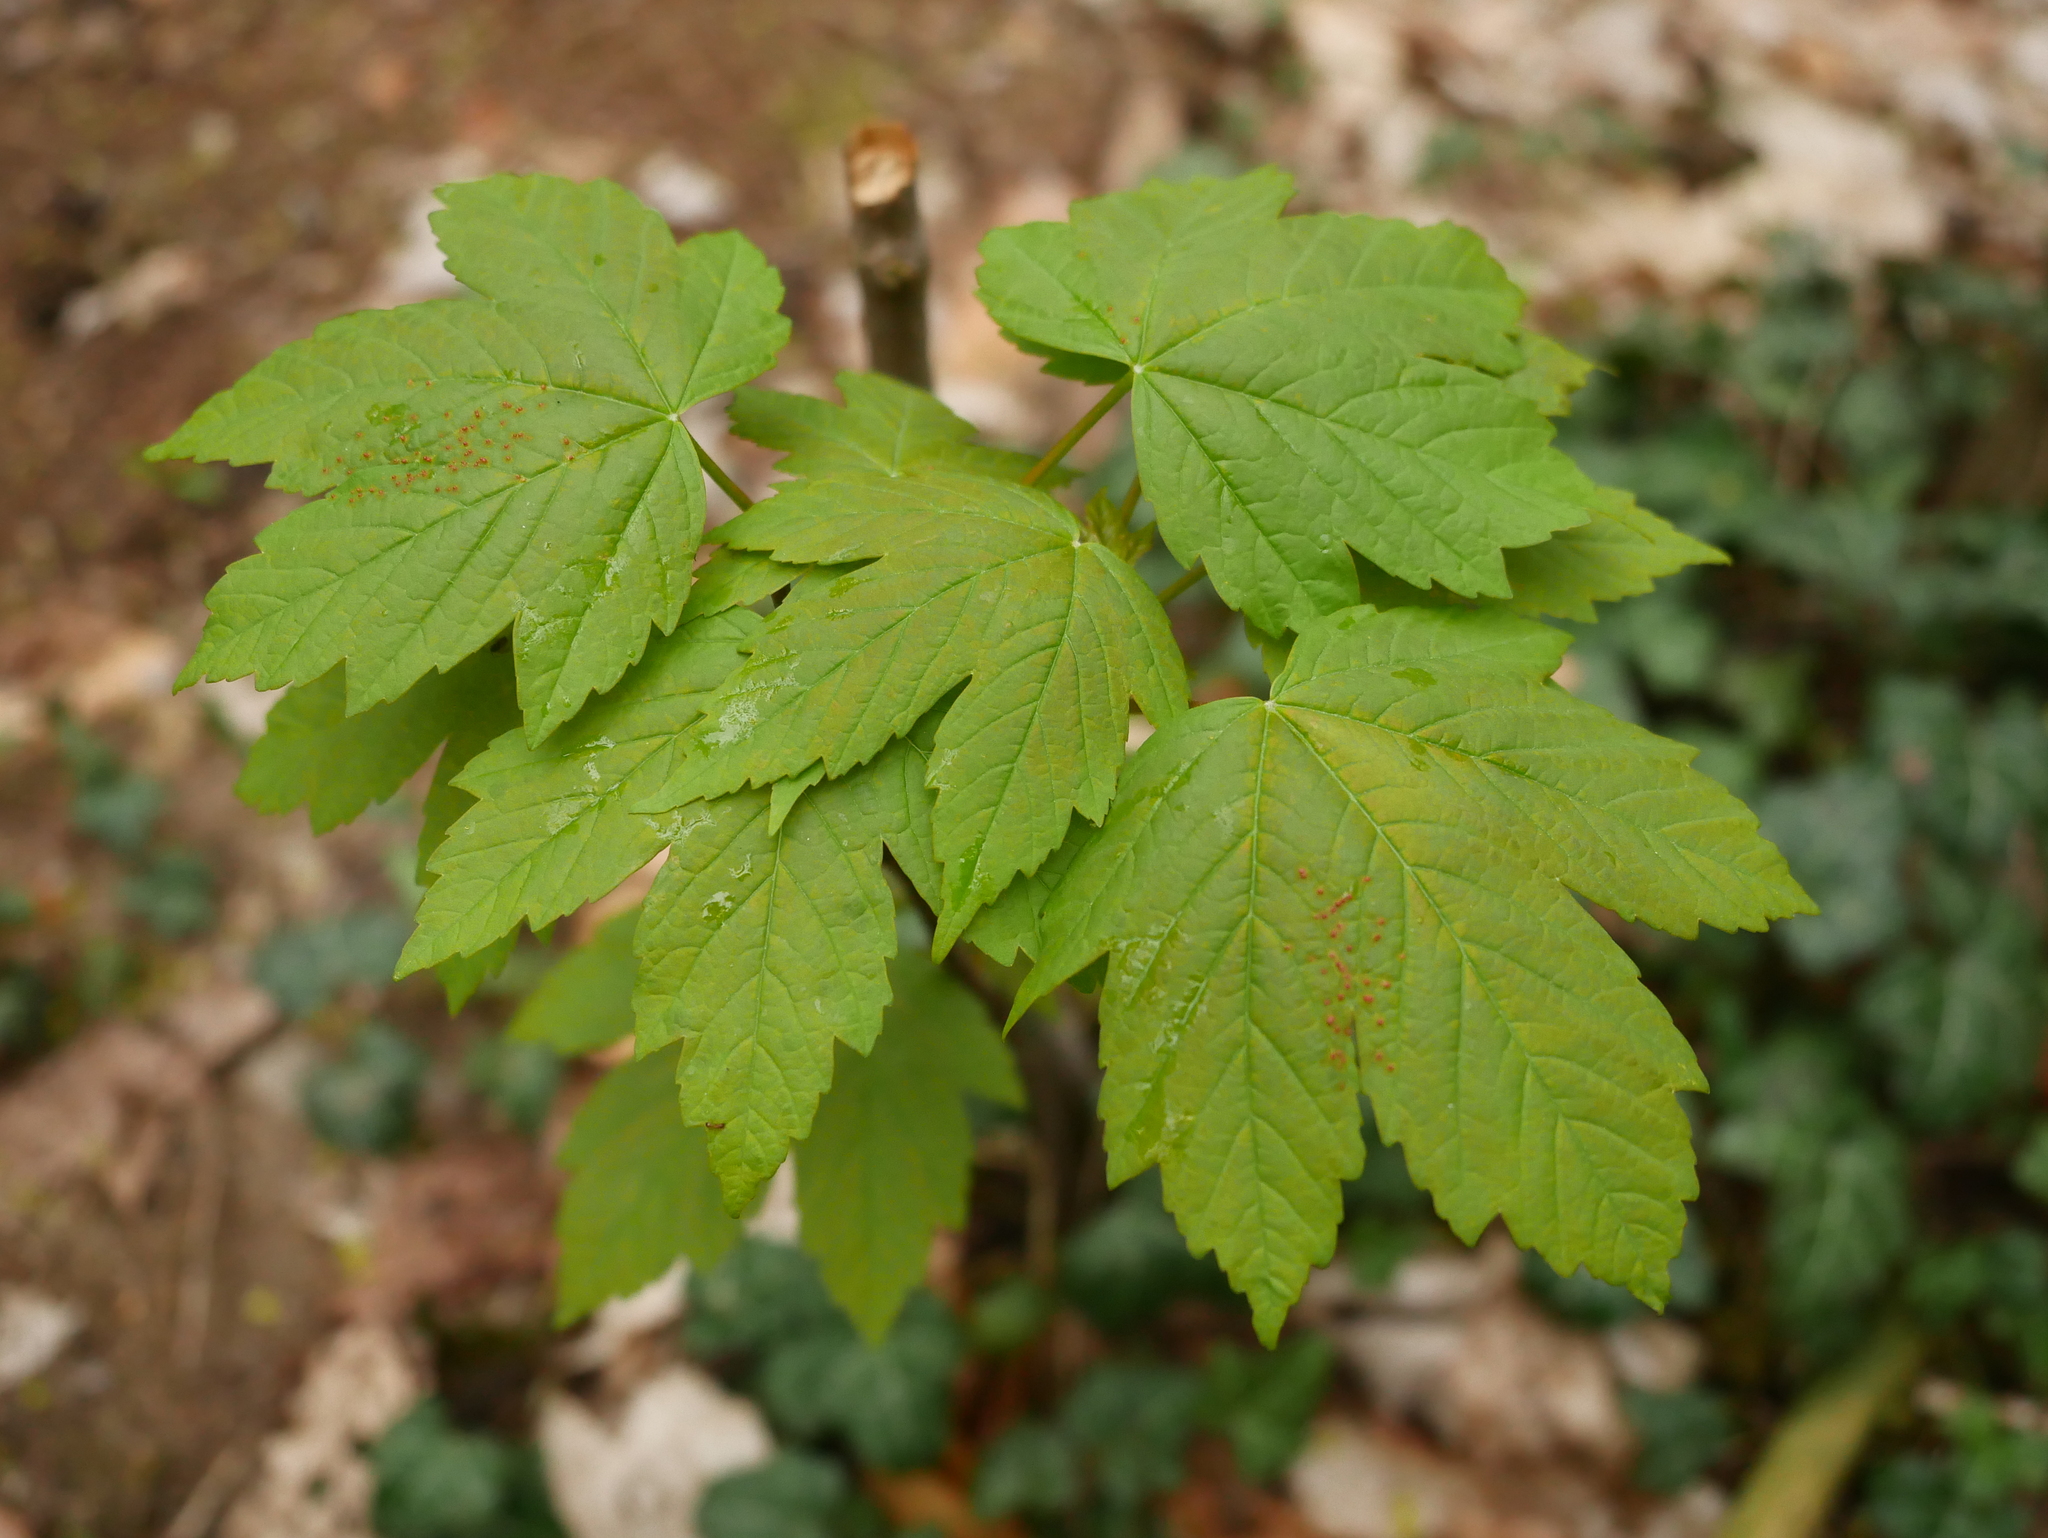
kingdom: Plantae
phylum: Tracheophyta
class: Magnoliopsida
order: Sapindales
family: Sapindaceae
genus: Acer
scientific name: Acer pseudoplatanus
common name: Sycamore
